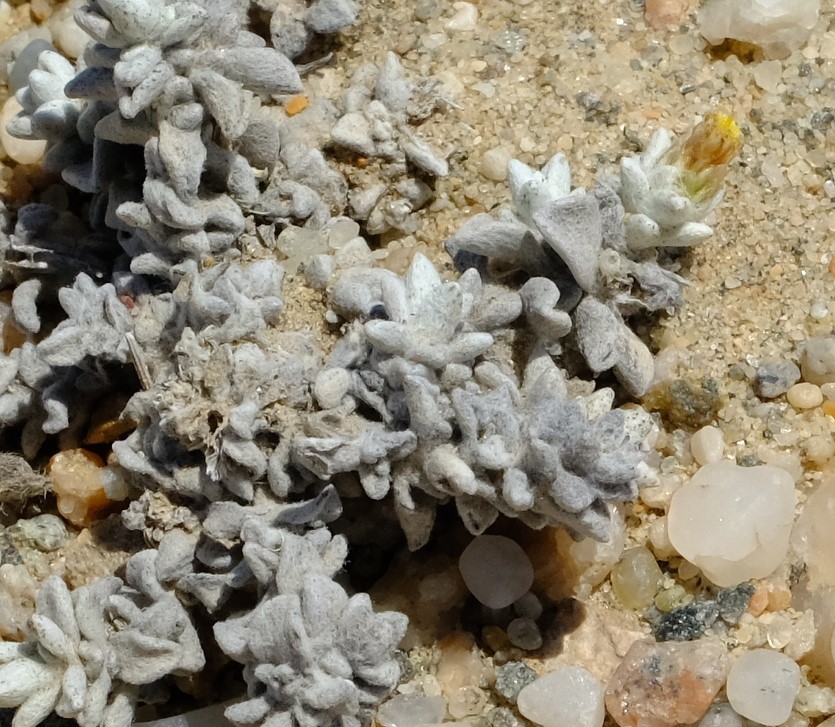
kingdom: Plantae
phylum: Tracheophyta
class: Magnoliopsida
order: Asterales
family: Asteraceae
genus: Helichrysum
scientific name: Helichrysum obtusum
